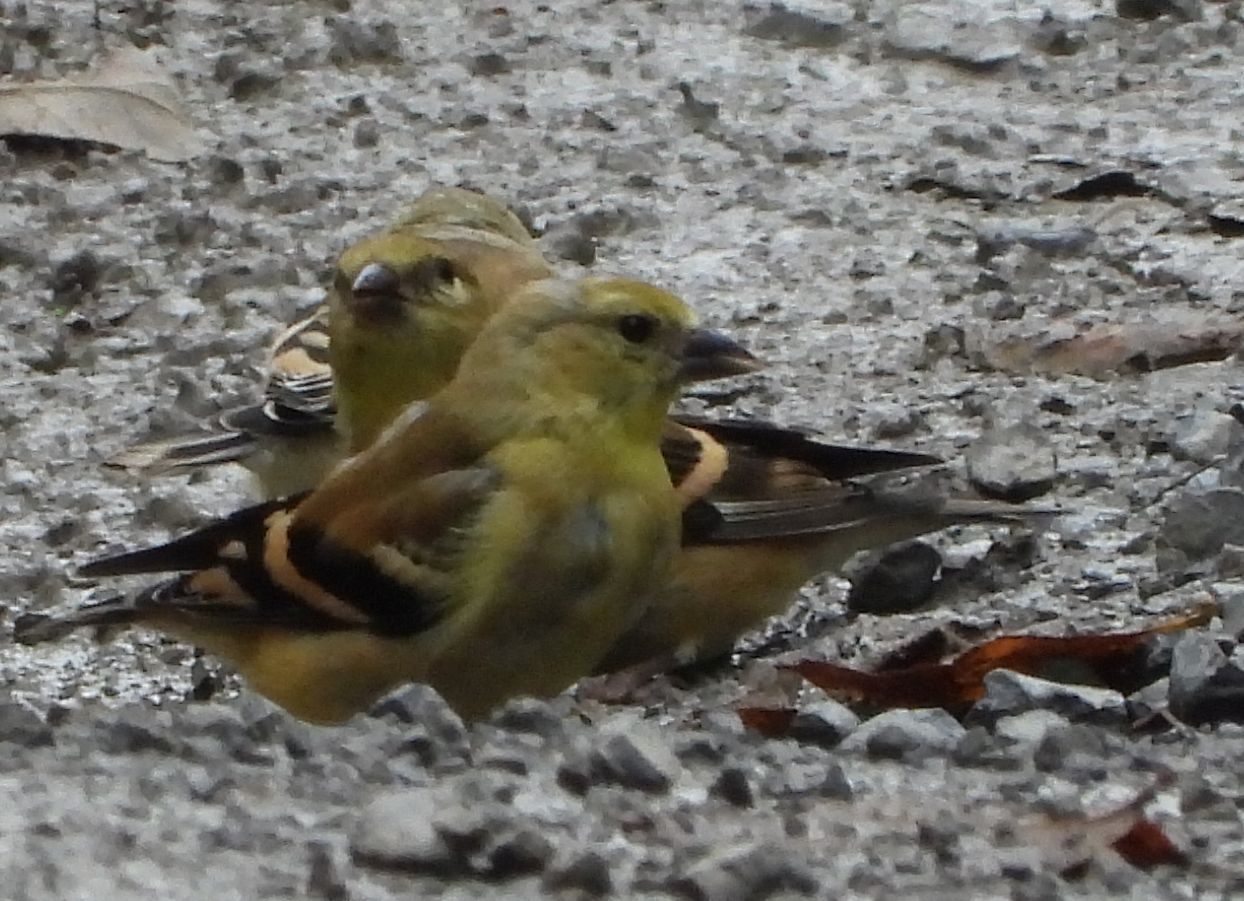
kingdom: Animalia
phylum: Chordata
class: Aves
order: Passeriformes
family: Fringillidae
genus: Spinus
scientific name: Spinus tristis
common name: American goldfinch
